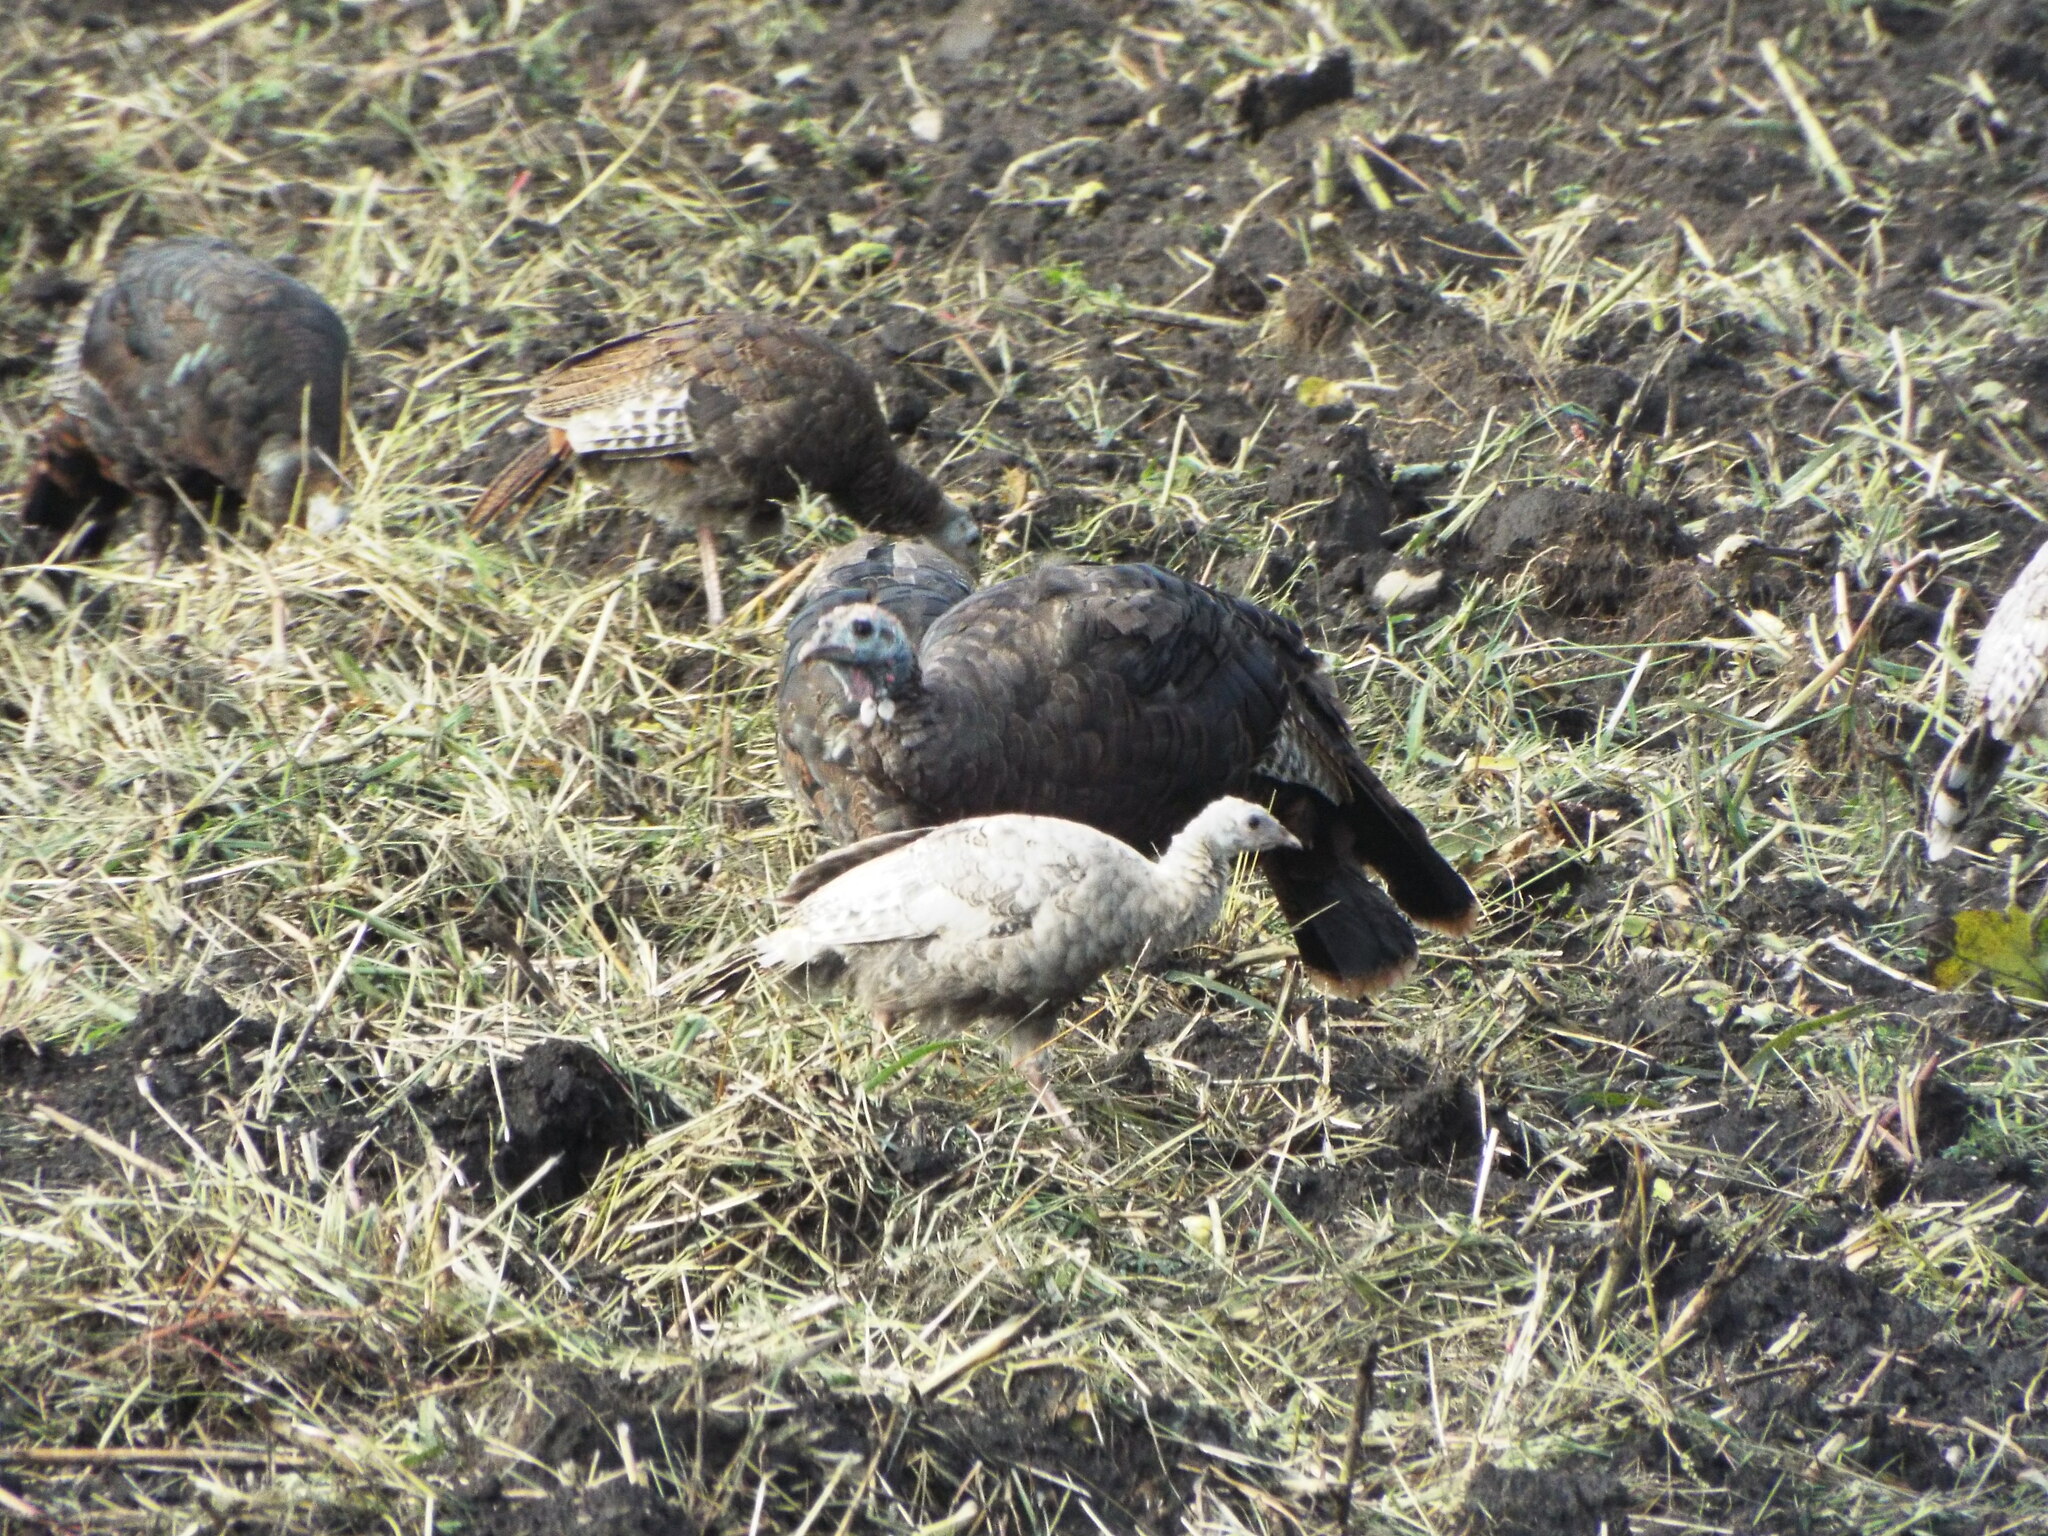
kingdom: Animalia
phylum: Chordata
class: Aves
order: Galliformes
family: Phasianidae
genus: Meleagris
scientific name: Meleagris gallopavo
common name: Wild turkey
